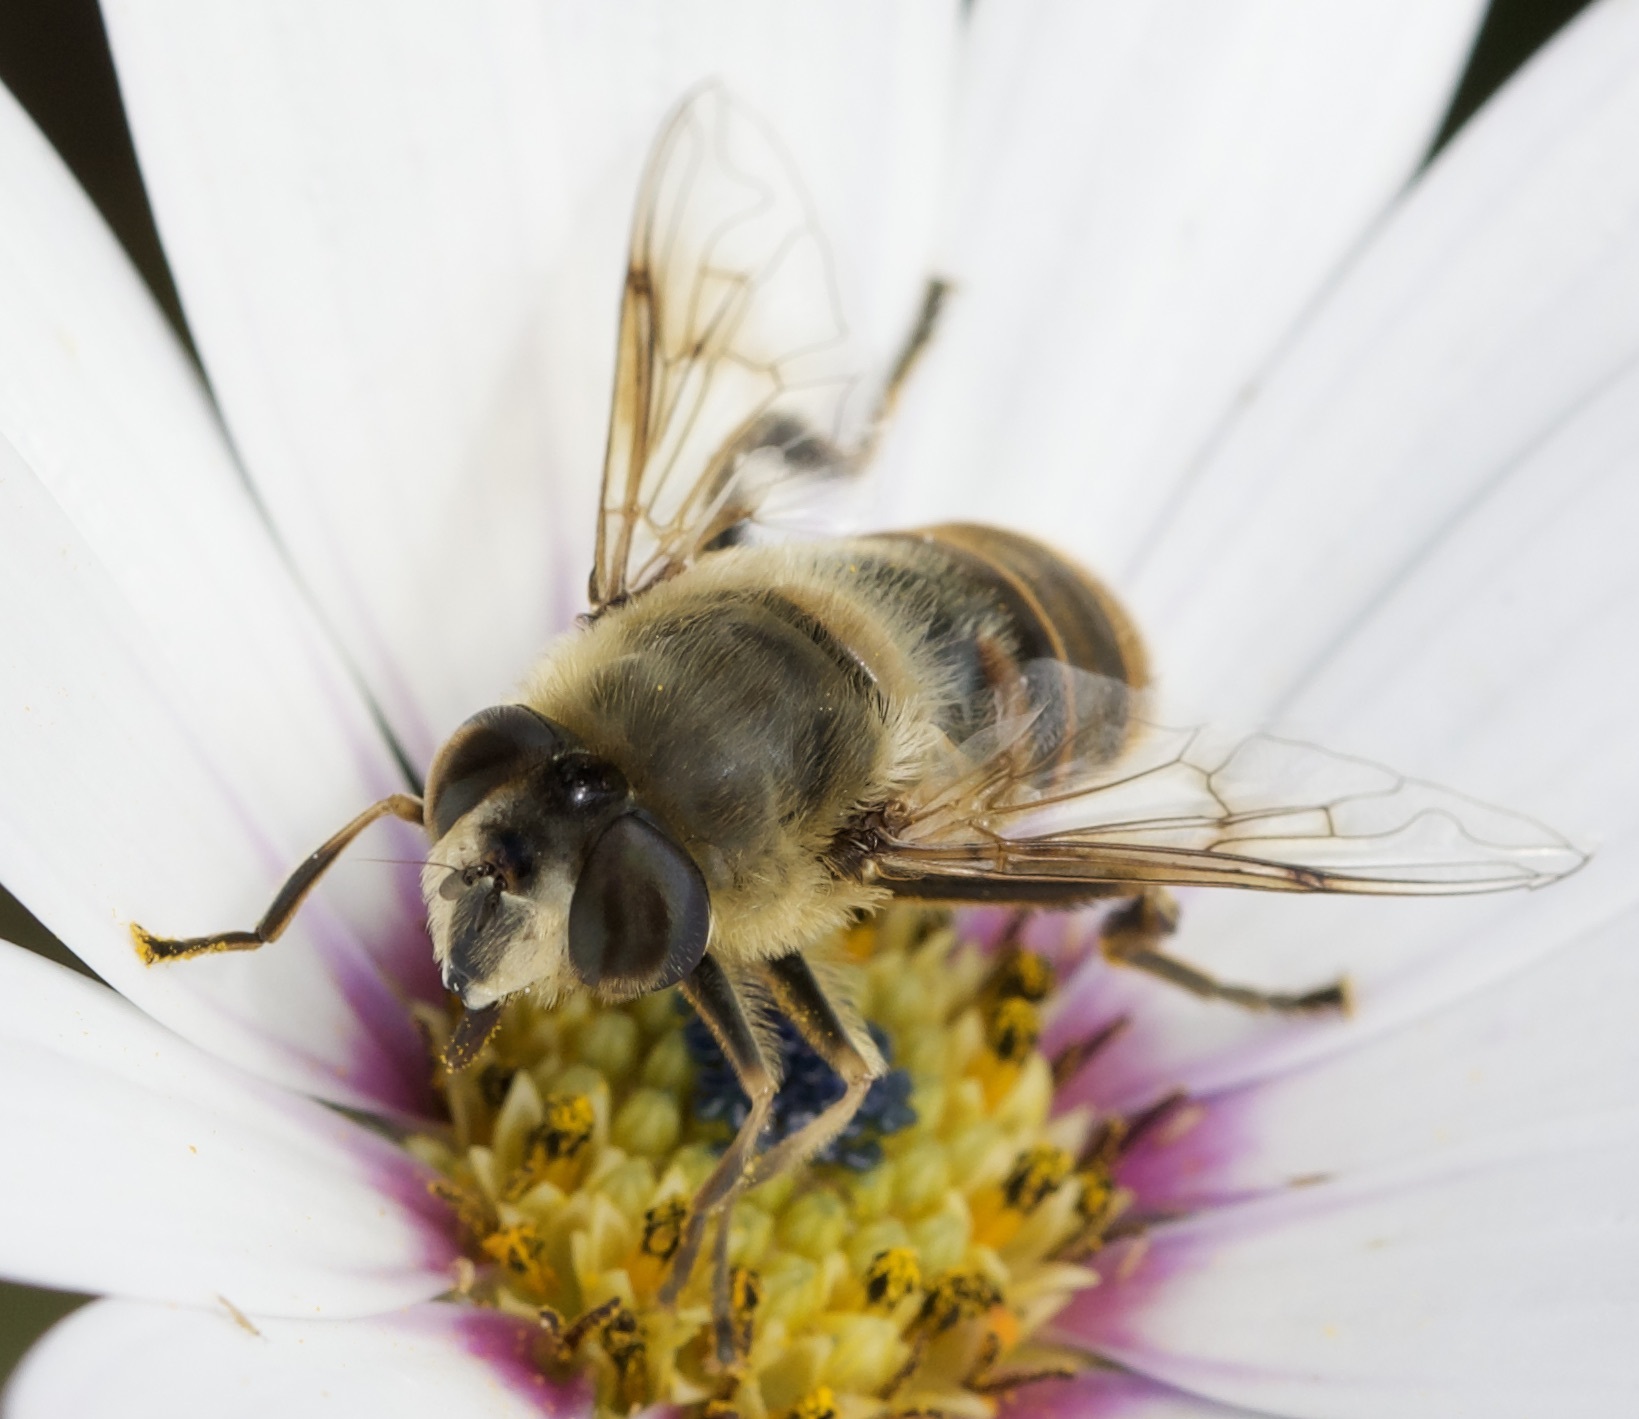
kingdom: Animalia
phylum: Arthropoda
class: Insecta
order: Diptera
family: Syrphidae
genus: Eristalis
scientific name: Eristalis tenax
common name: Drone fly
